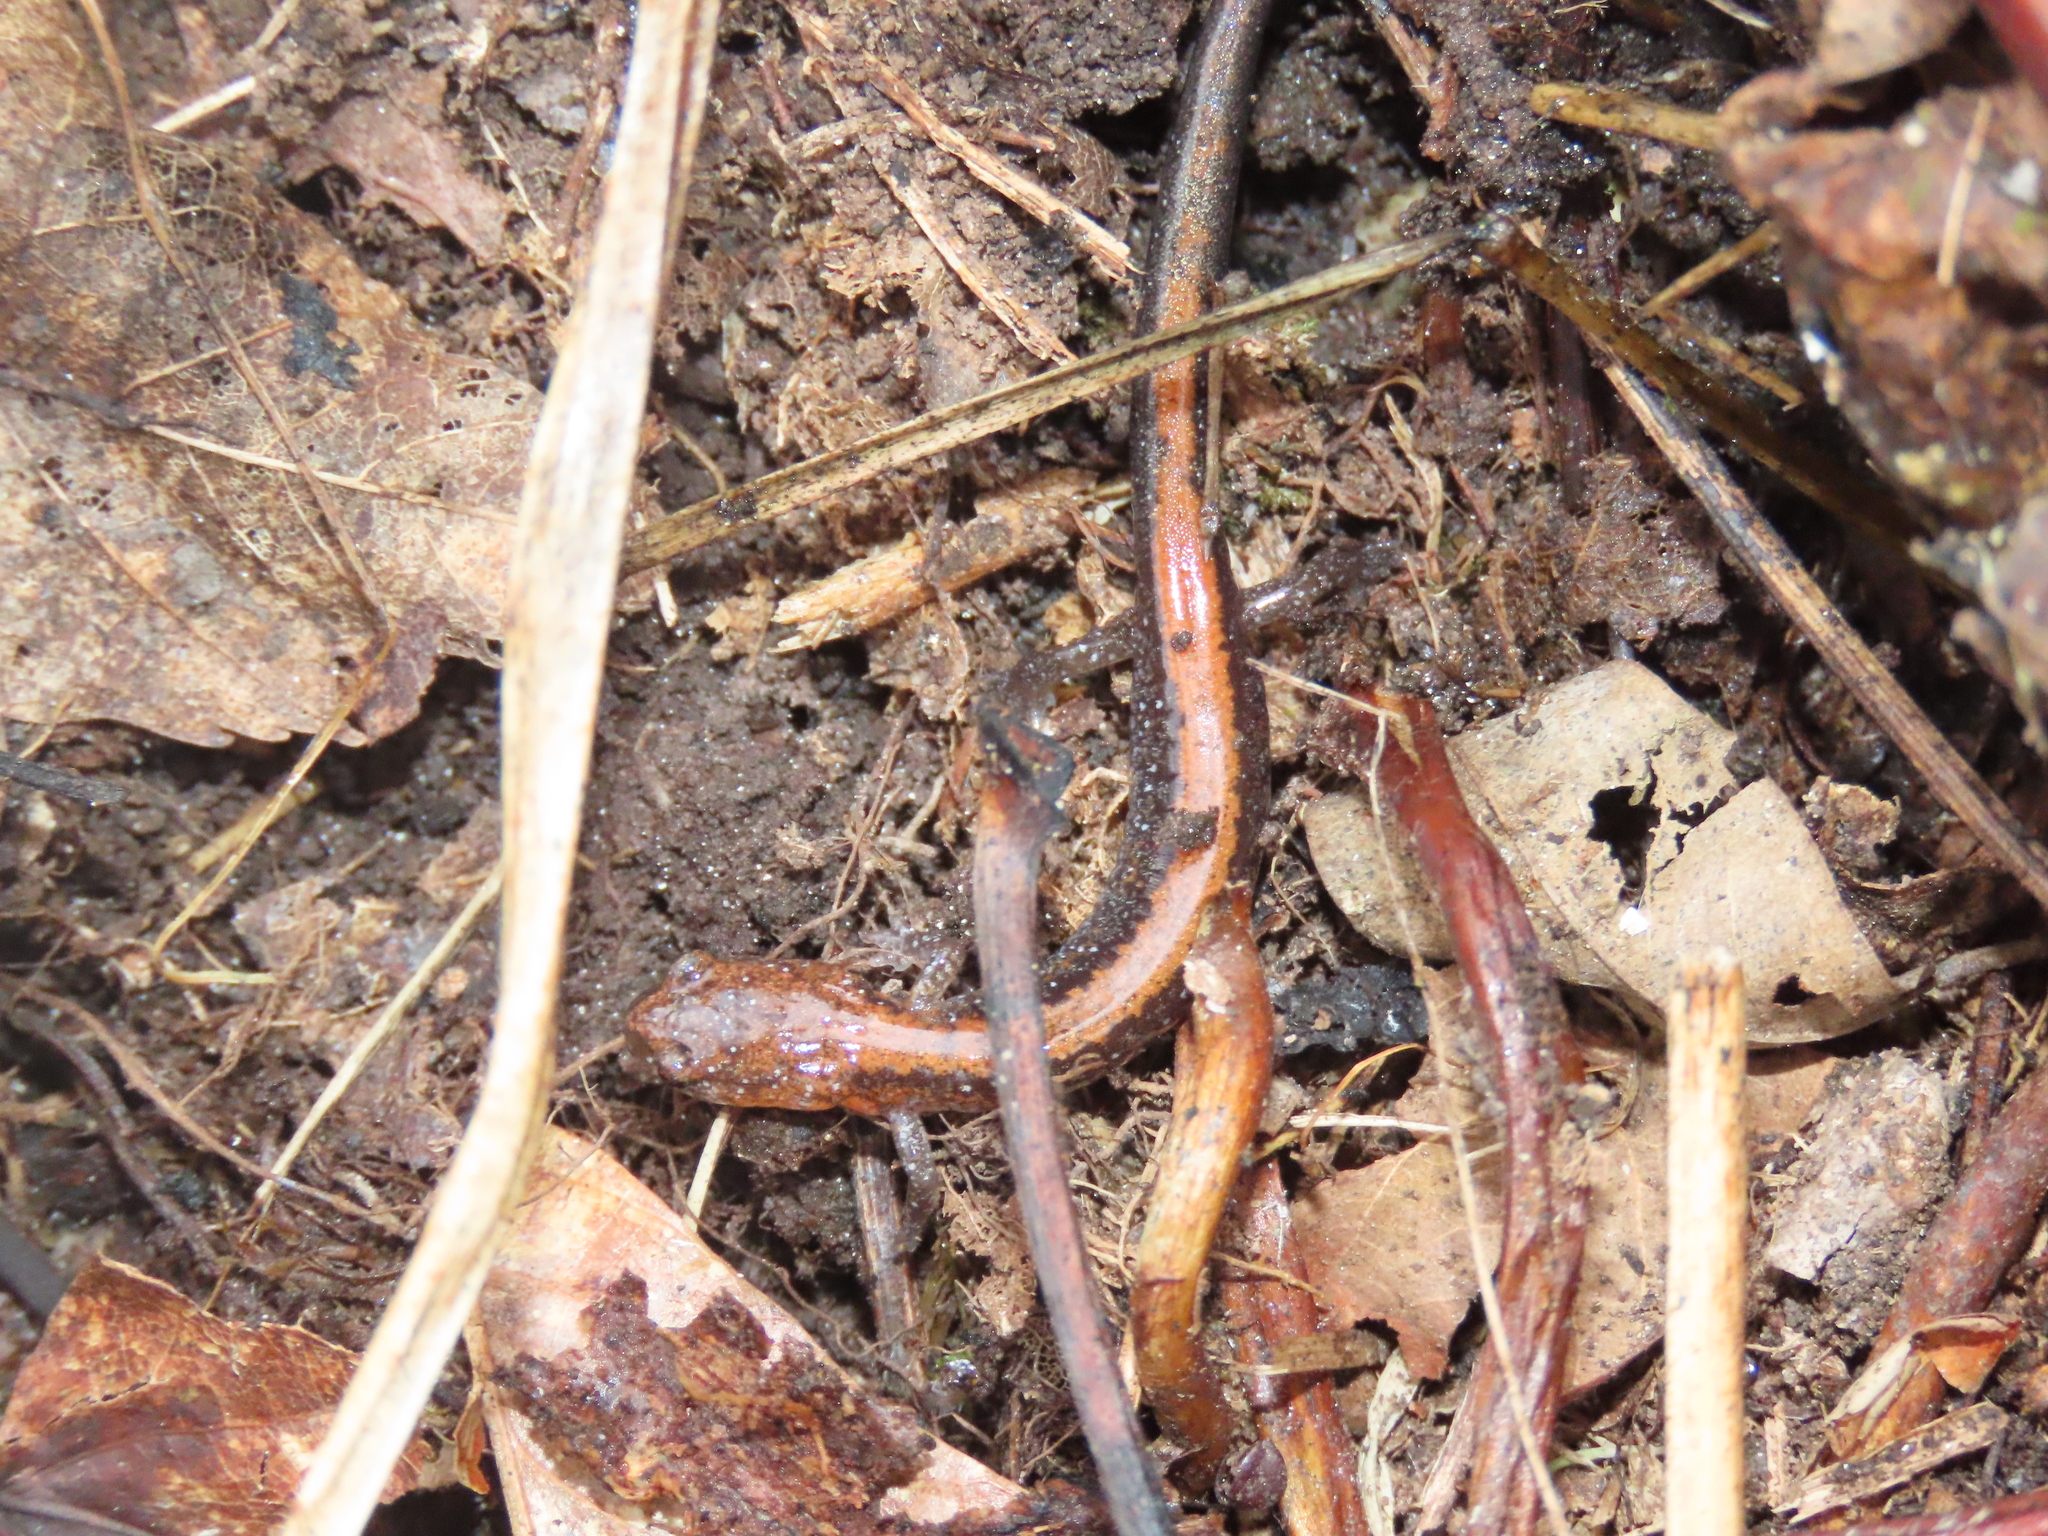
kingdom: Animalia
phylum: Chordata
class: Amphibia
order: Caudata
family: Plethodontidae
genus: Plethodon
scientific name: Plethodon cinereus
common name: Redback salamander
